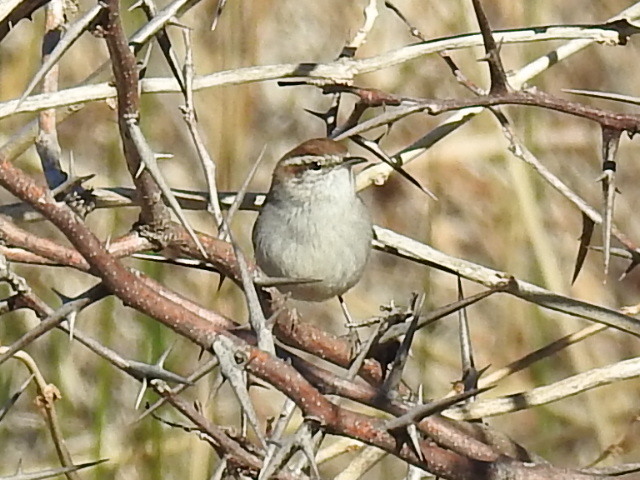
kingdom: Animalia
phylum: Chordata
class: Aves
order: Passeriformes
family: Troglodytidae
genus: Thryomanes
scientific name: Thryomanes bewickii
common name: Bewick's wren
